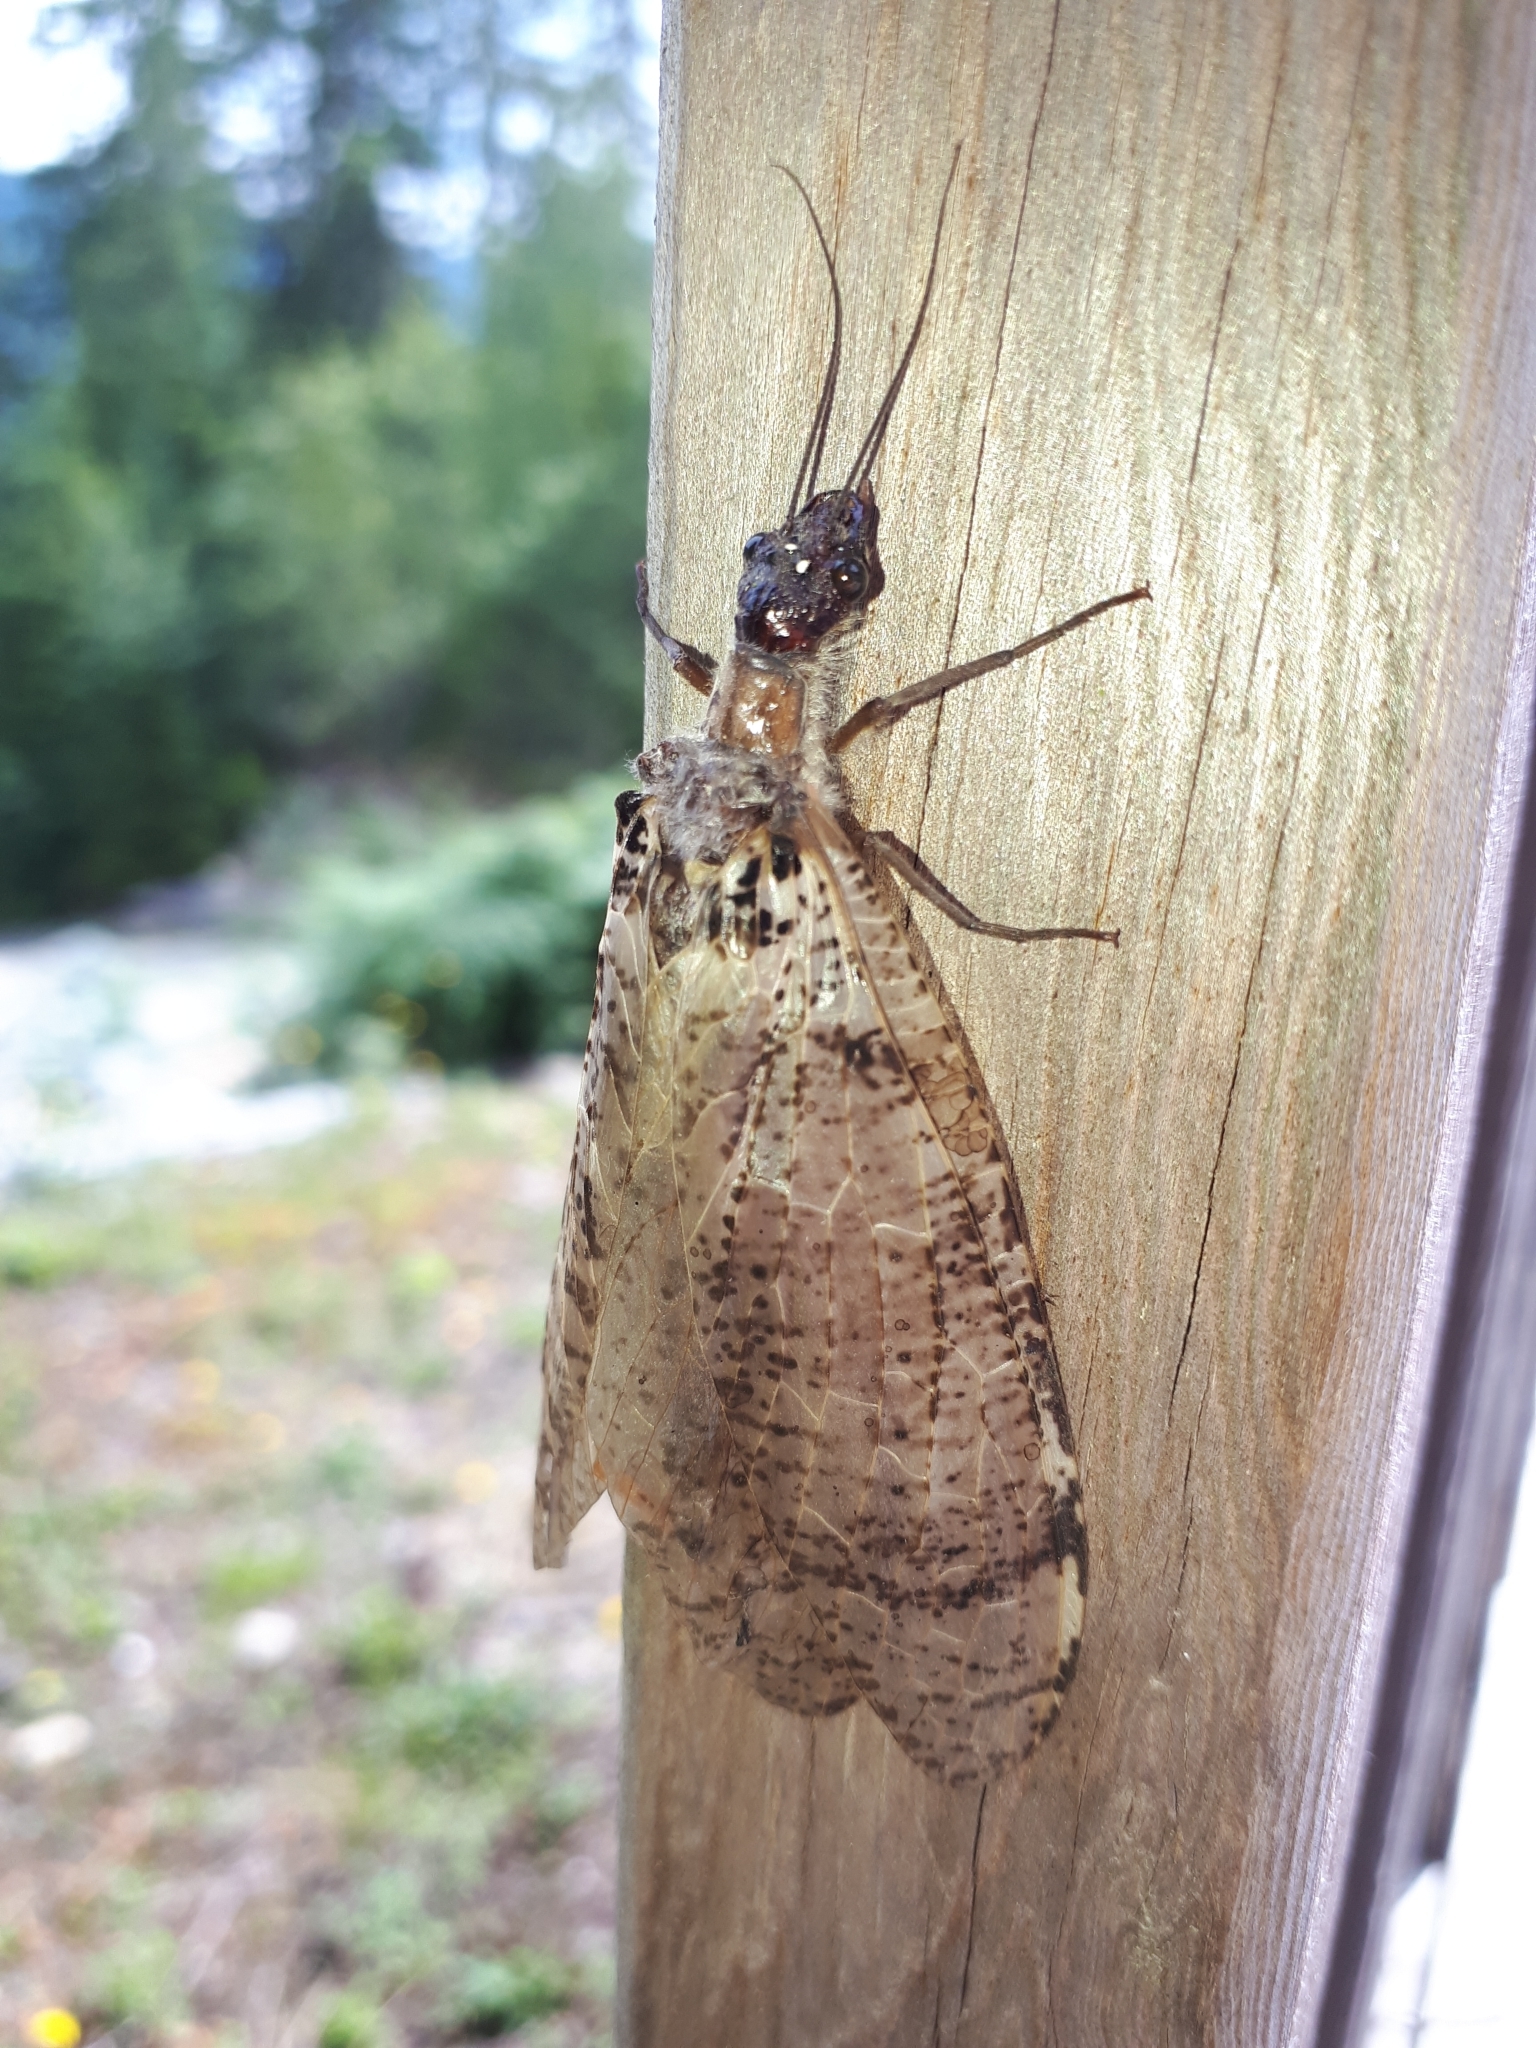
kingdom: Animalia
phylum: Arthropoda
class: Insecta
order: Megaloptera
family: Corydalidae
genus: Dysmicohermes
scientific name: Dysmicohermes disjunctus
